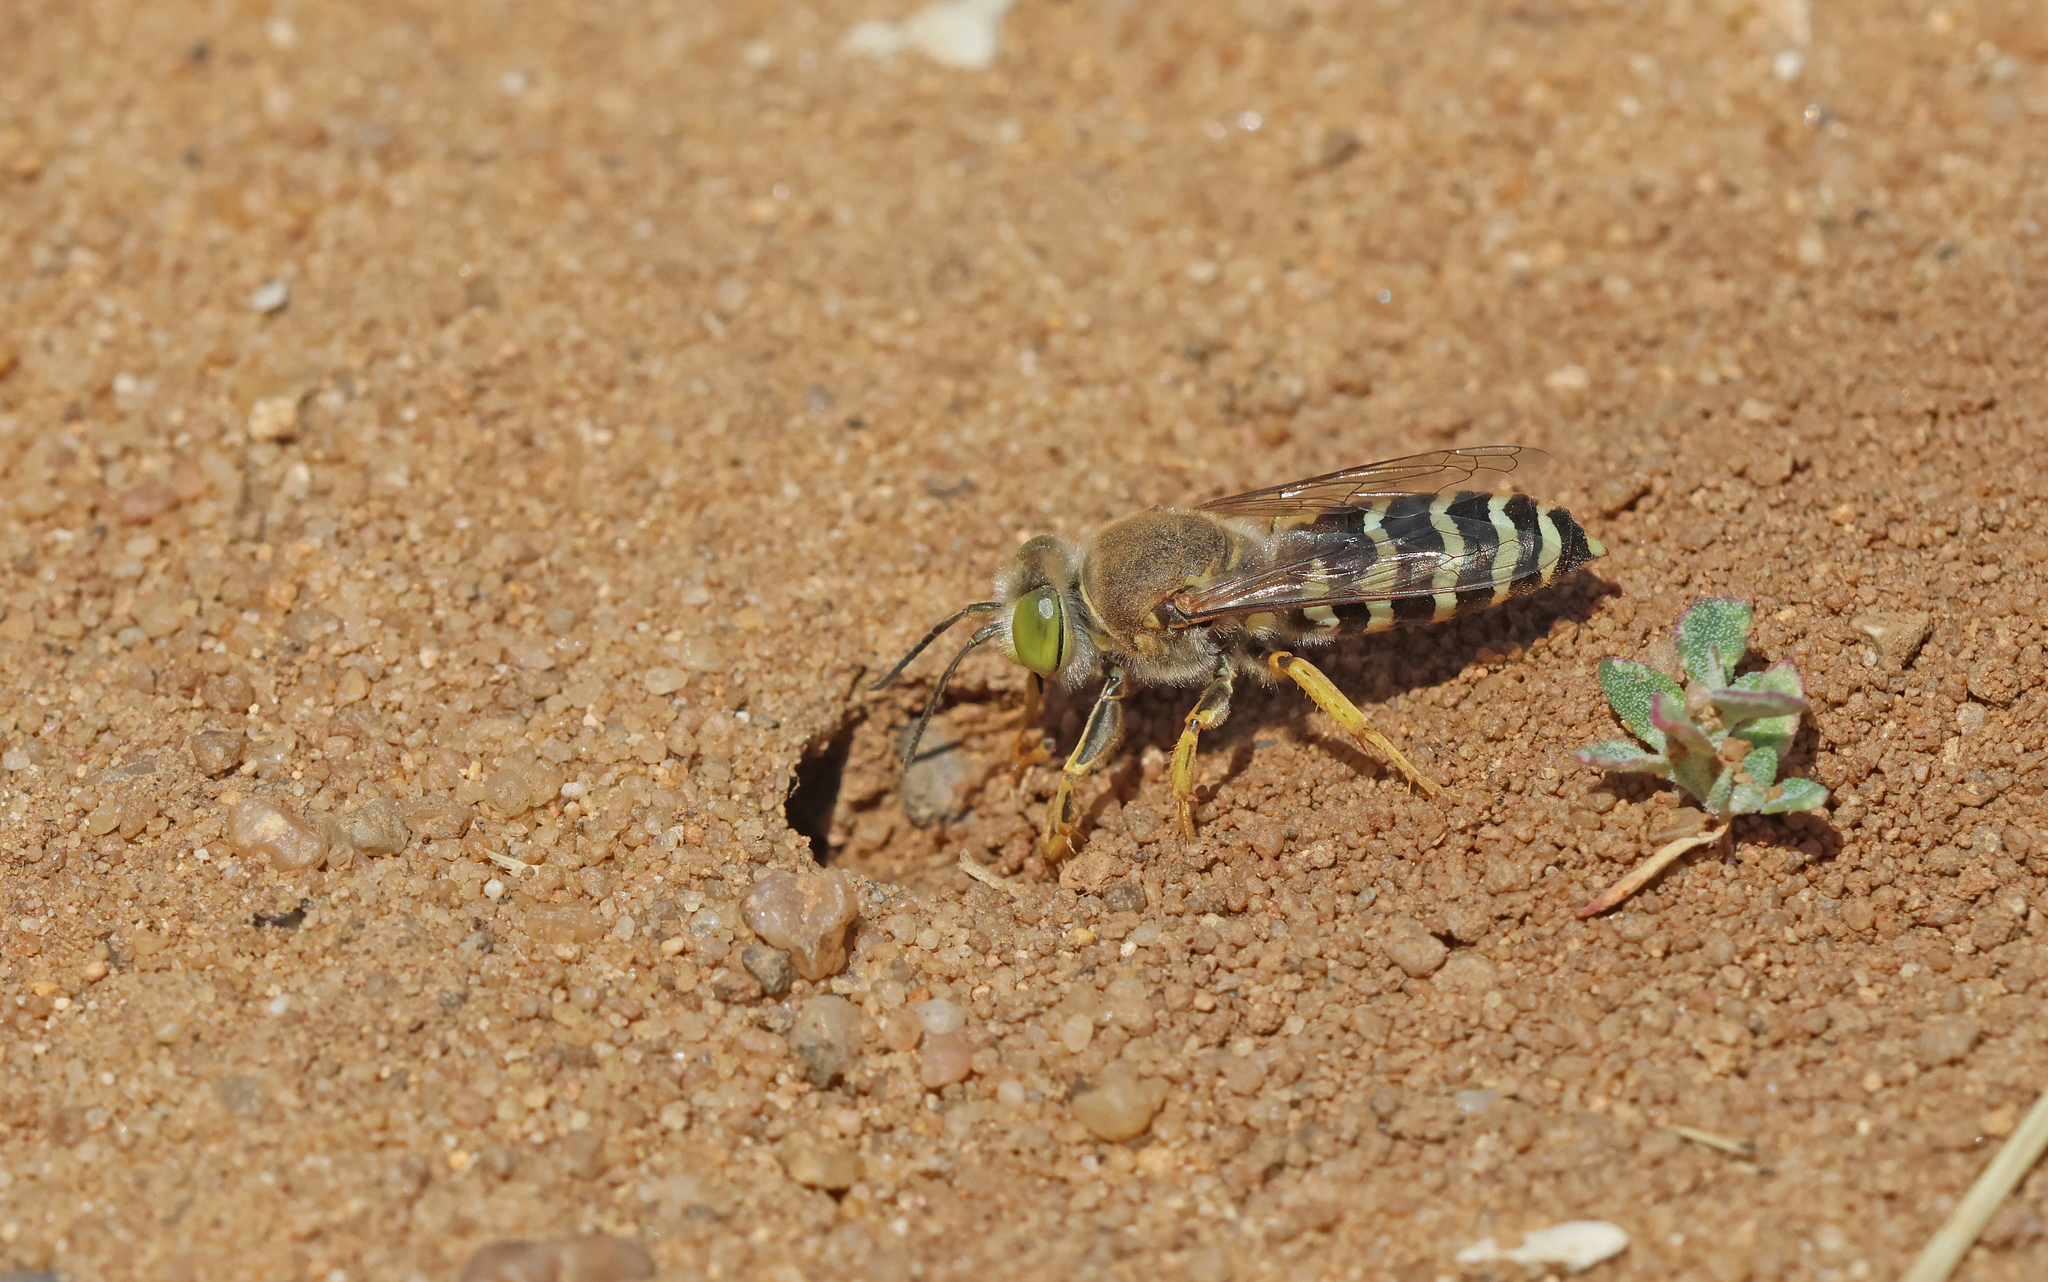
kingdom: Animalia
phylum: Arthropoda
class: Insecta
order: Hymenoptera
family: Crabronidae
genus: Bembix
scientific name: Bembix rostrata
